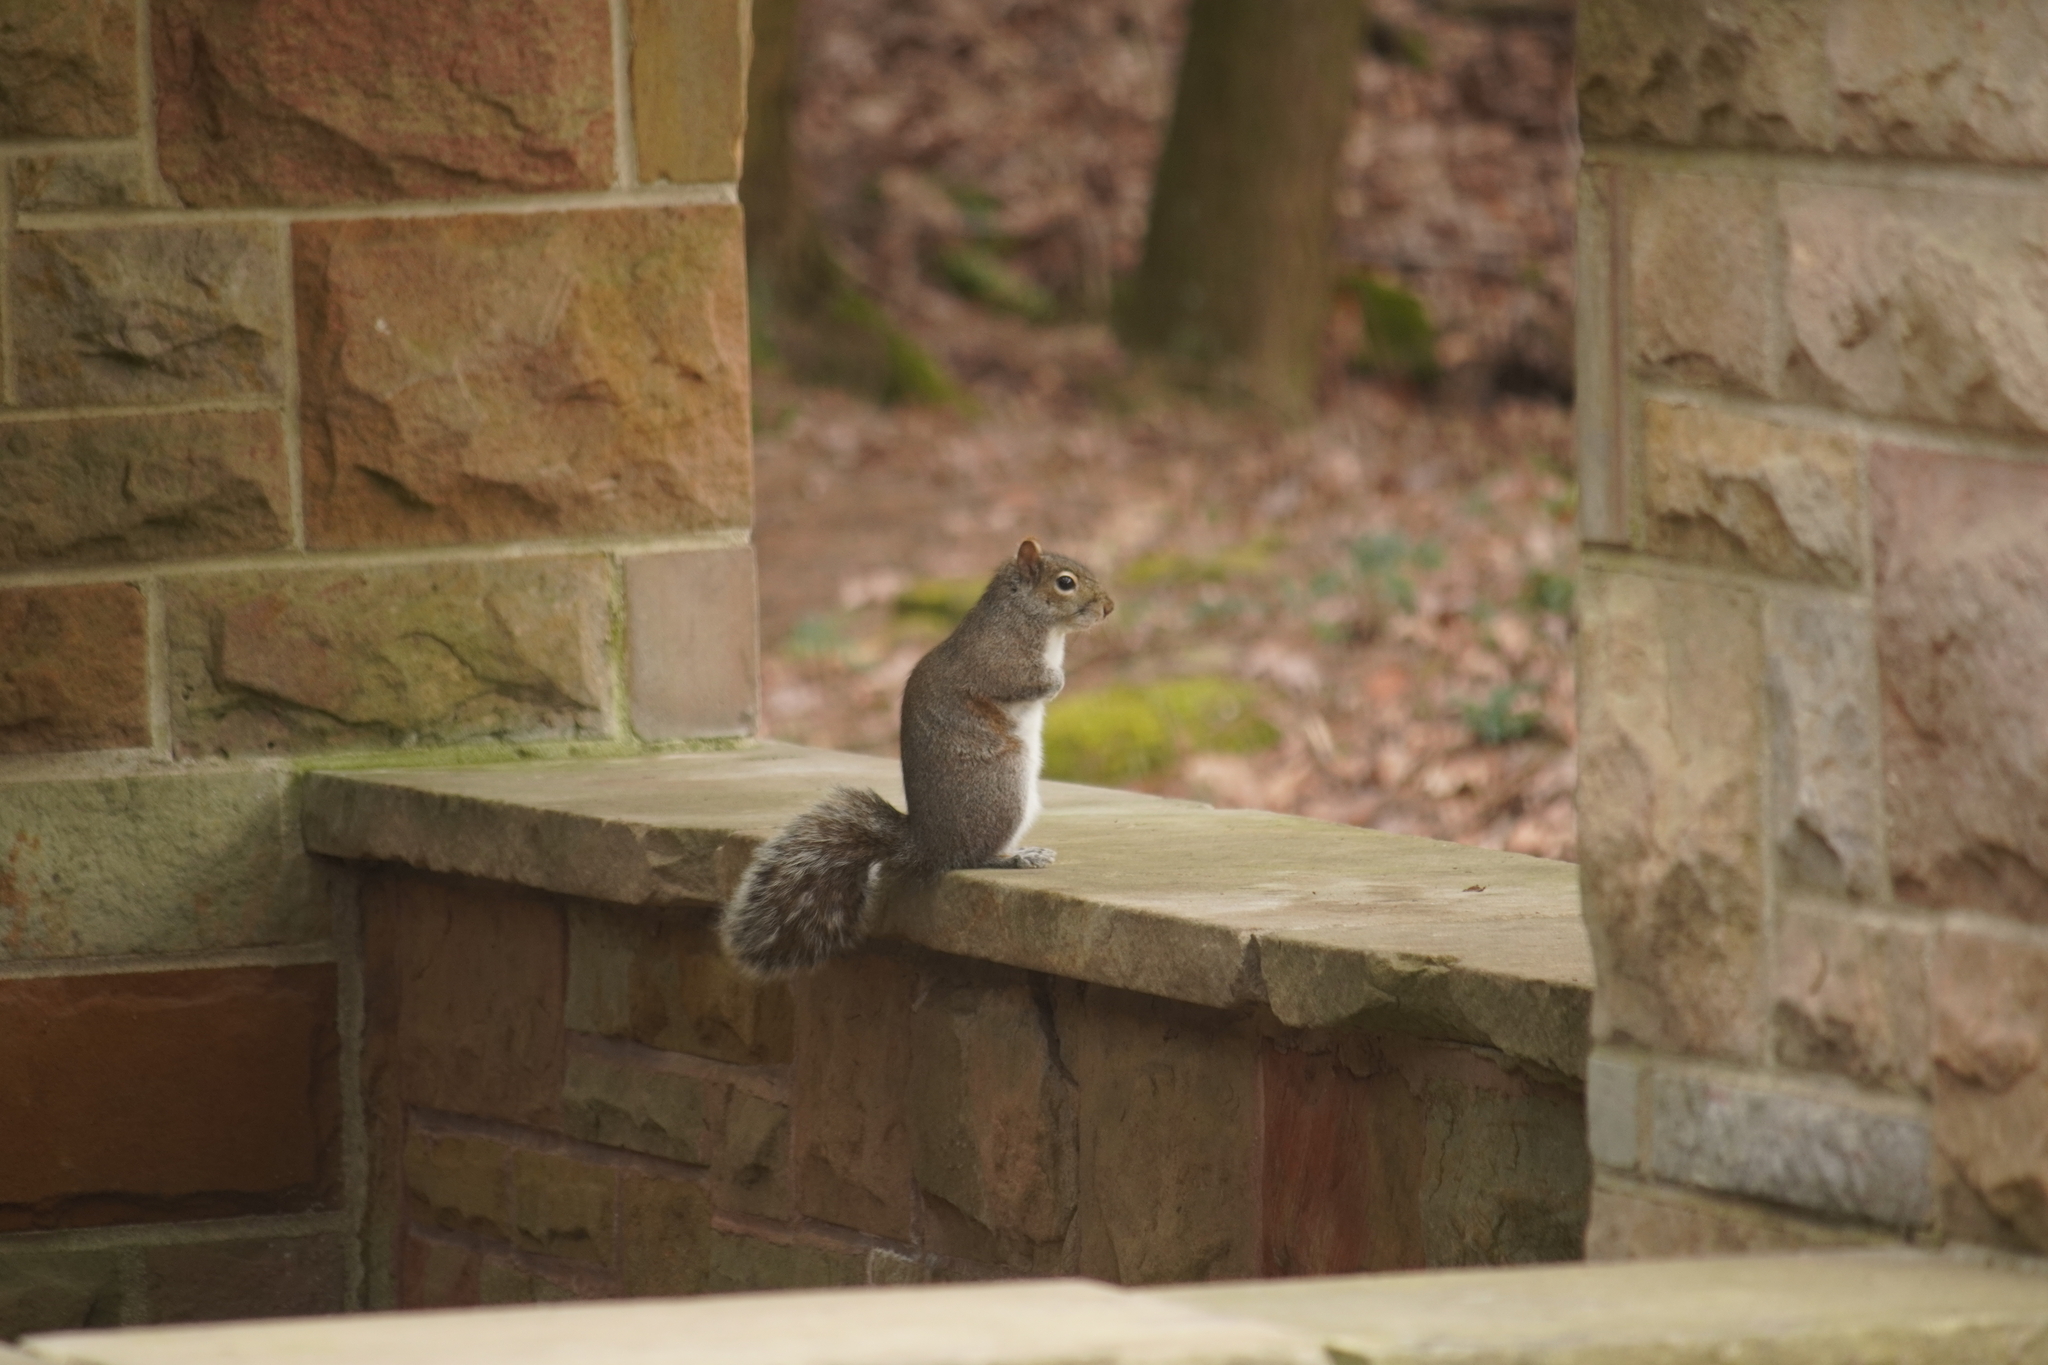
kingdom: Animalia
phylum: Chordata
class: Mammalia
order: Rodentia
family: Sciuridae
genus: Sciurus
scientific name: Sciurus carolinensis
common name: Eastern gray squirrel
